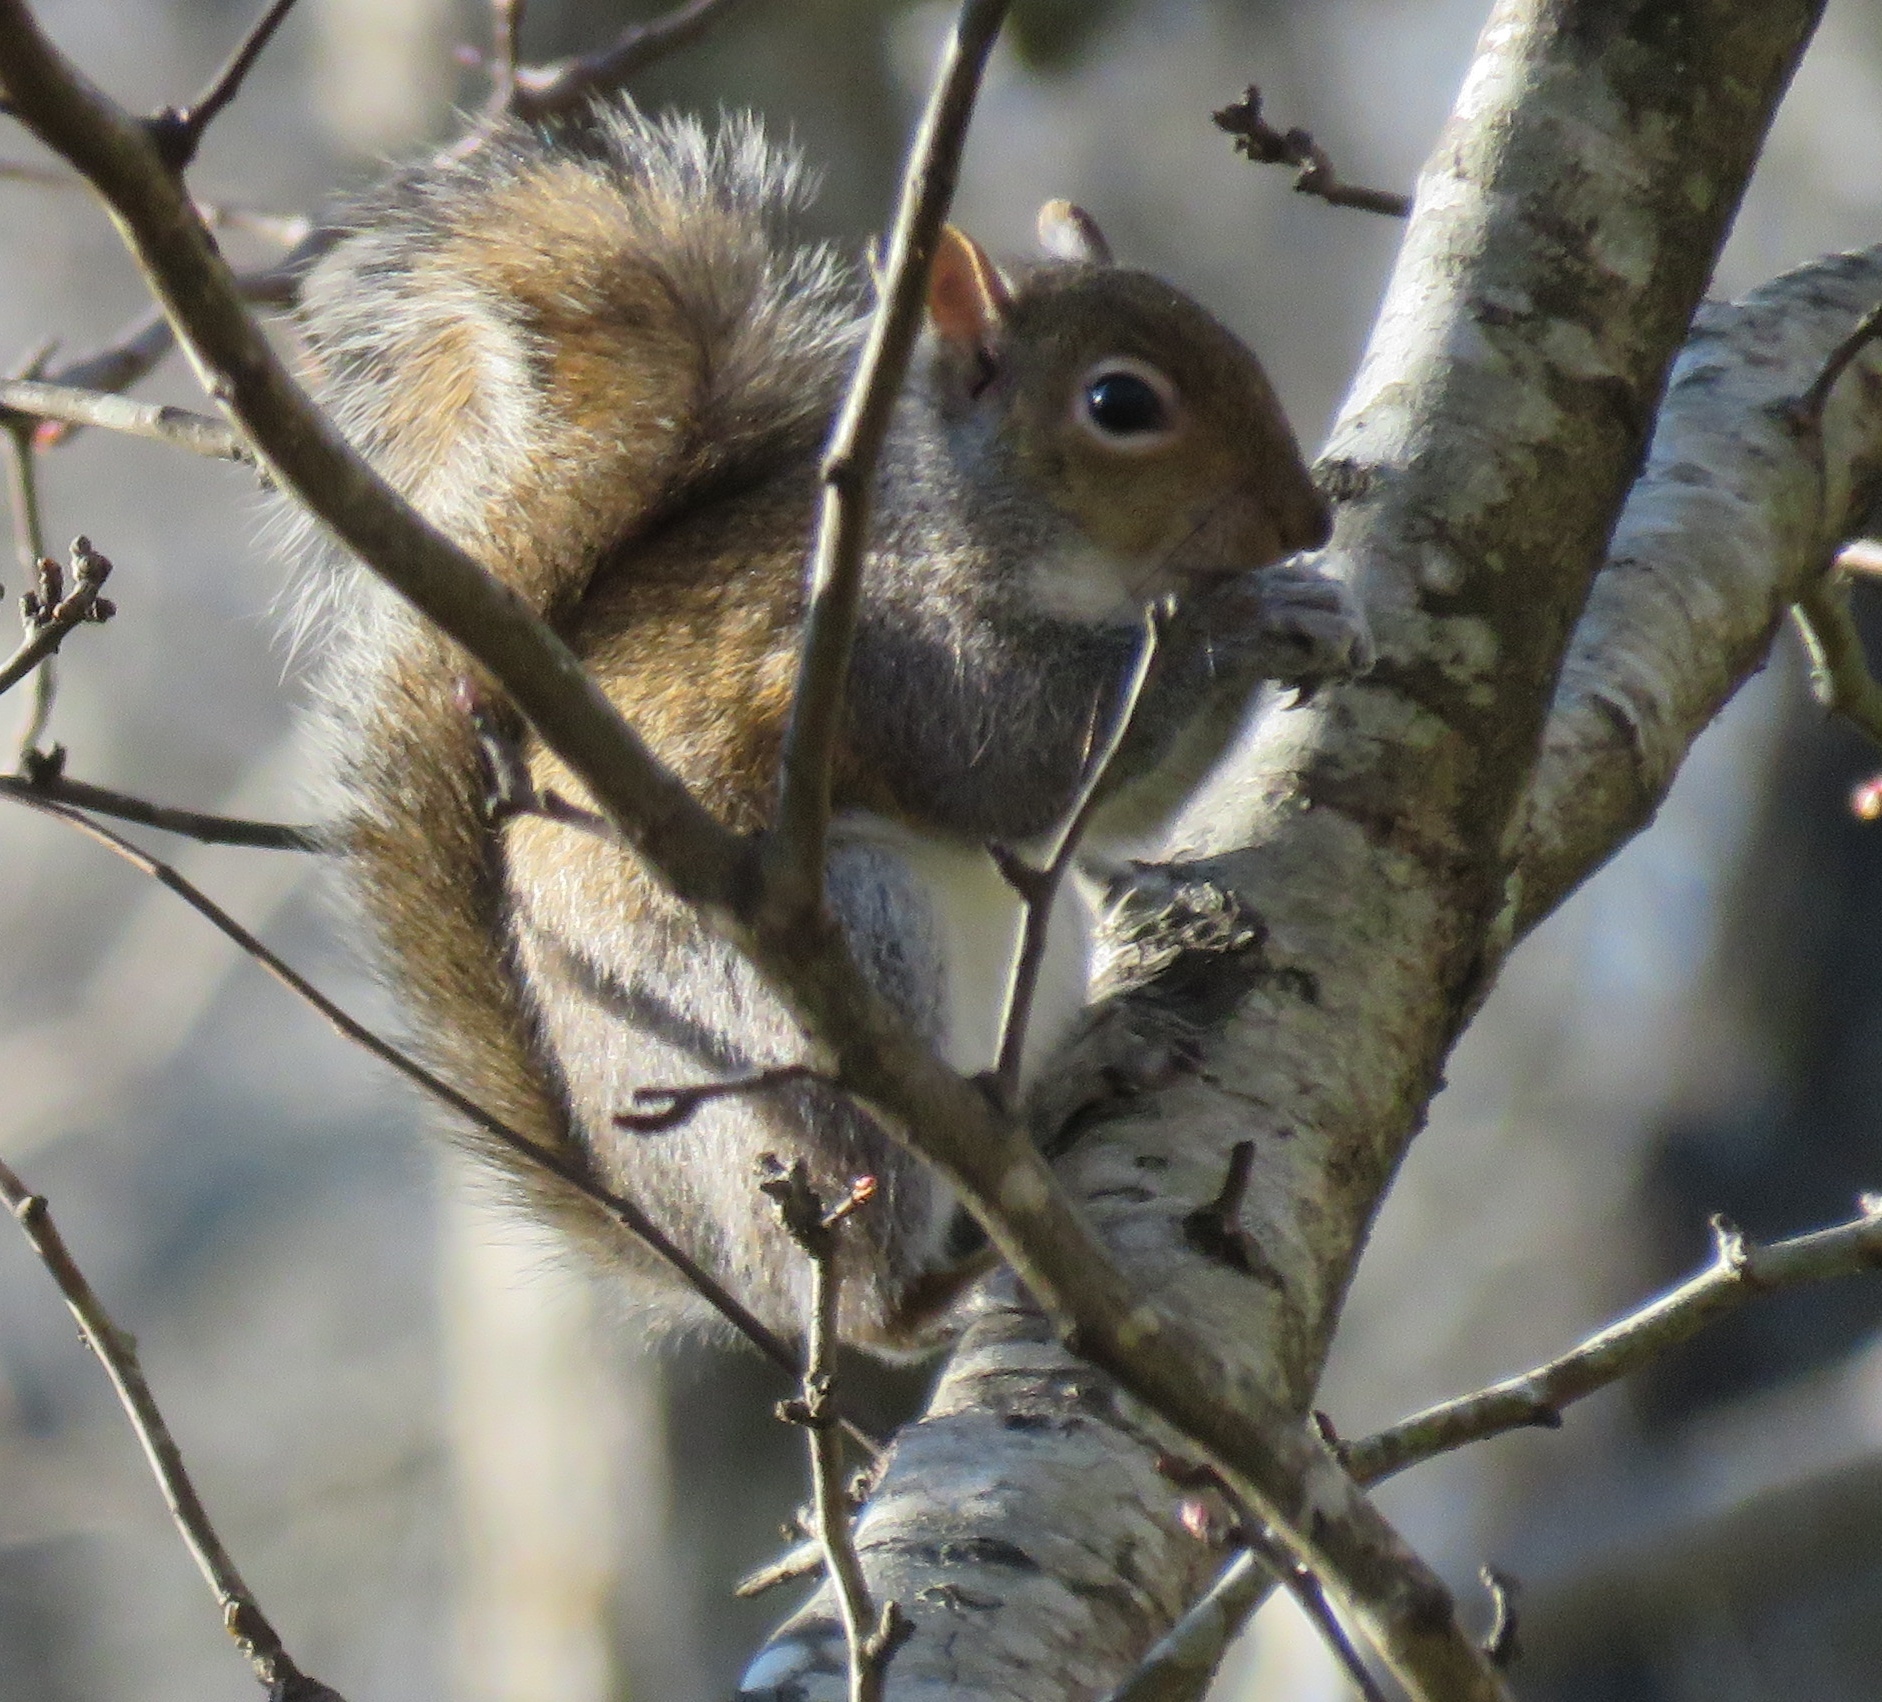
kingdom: Animalia
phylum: Chordata
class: Mammalia
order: Rodentia
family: Sciuridae
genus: Sciurus
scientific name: Sciurus carolinensis
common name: Eastern gray squirrel
